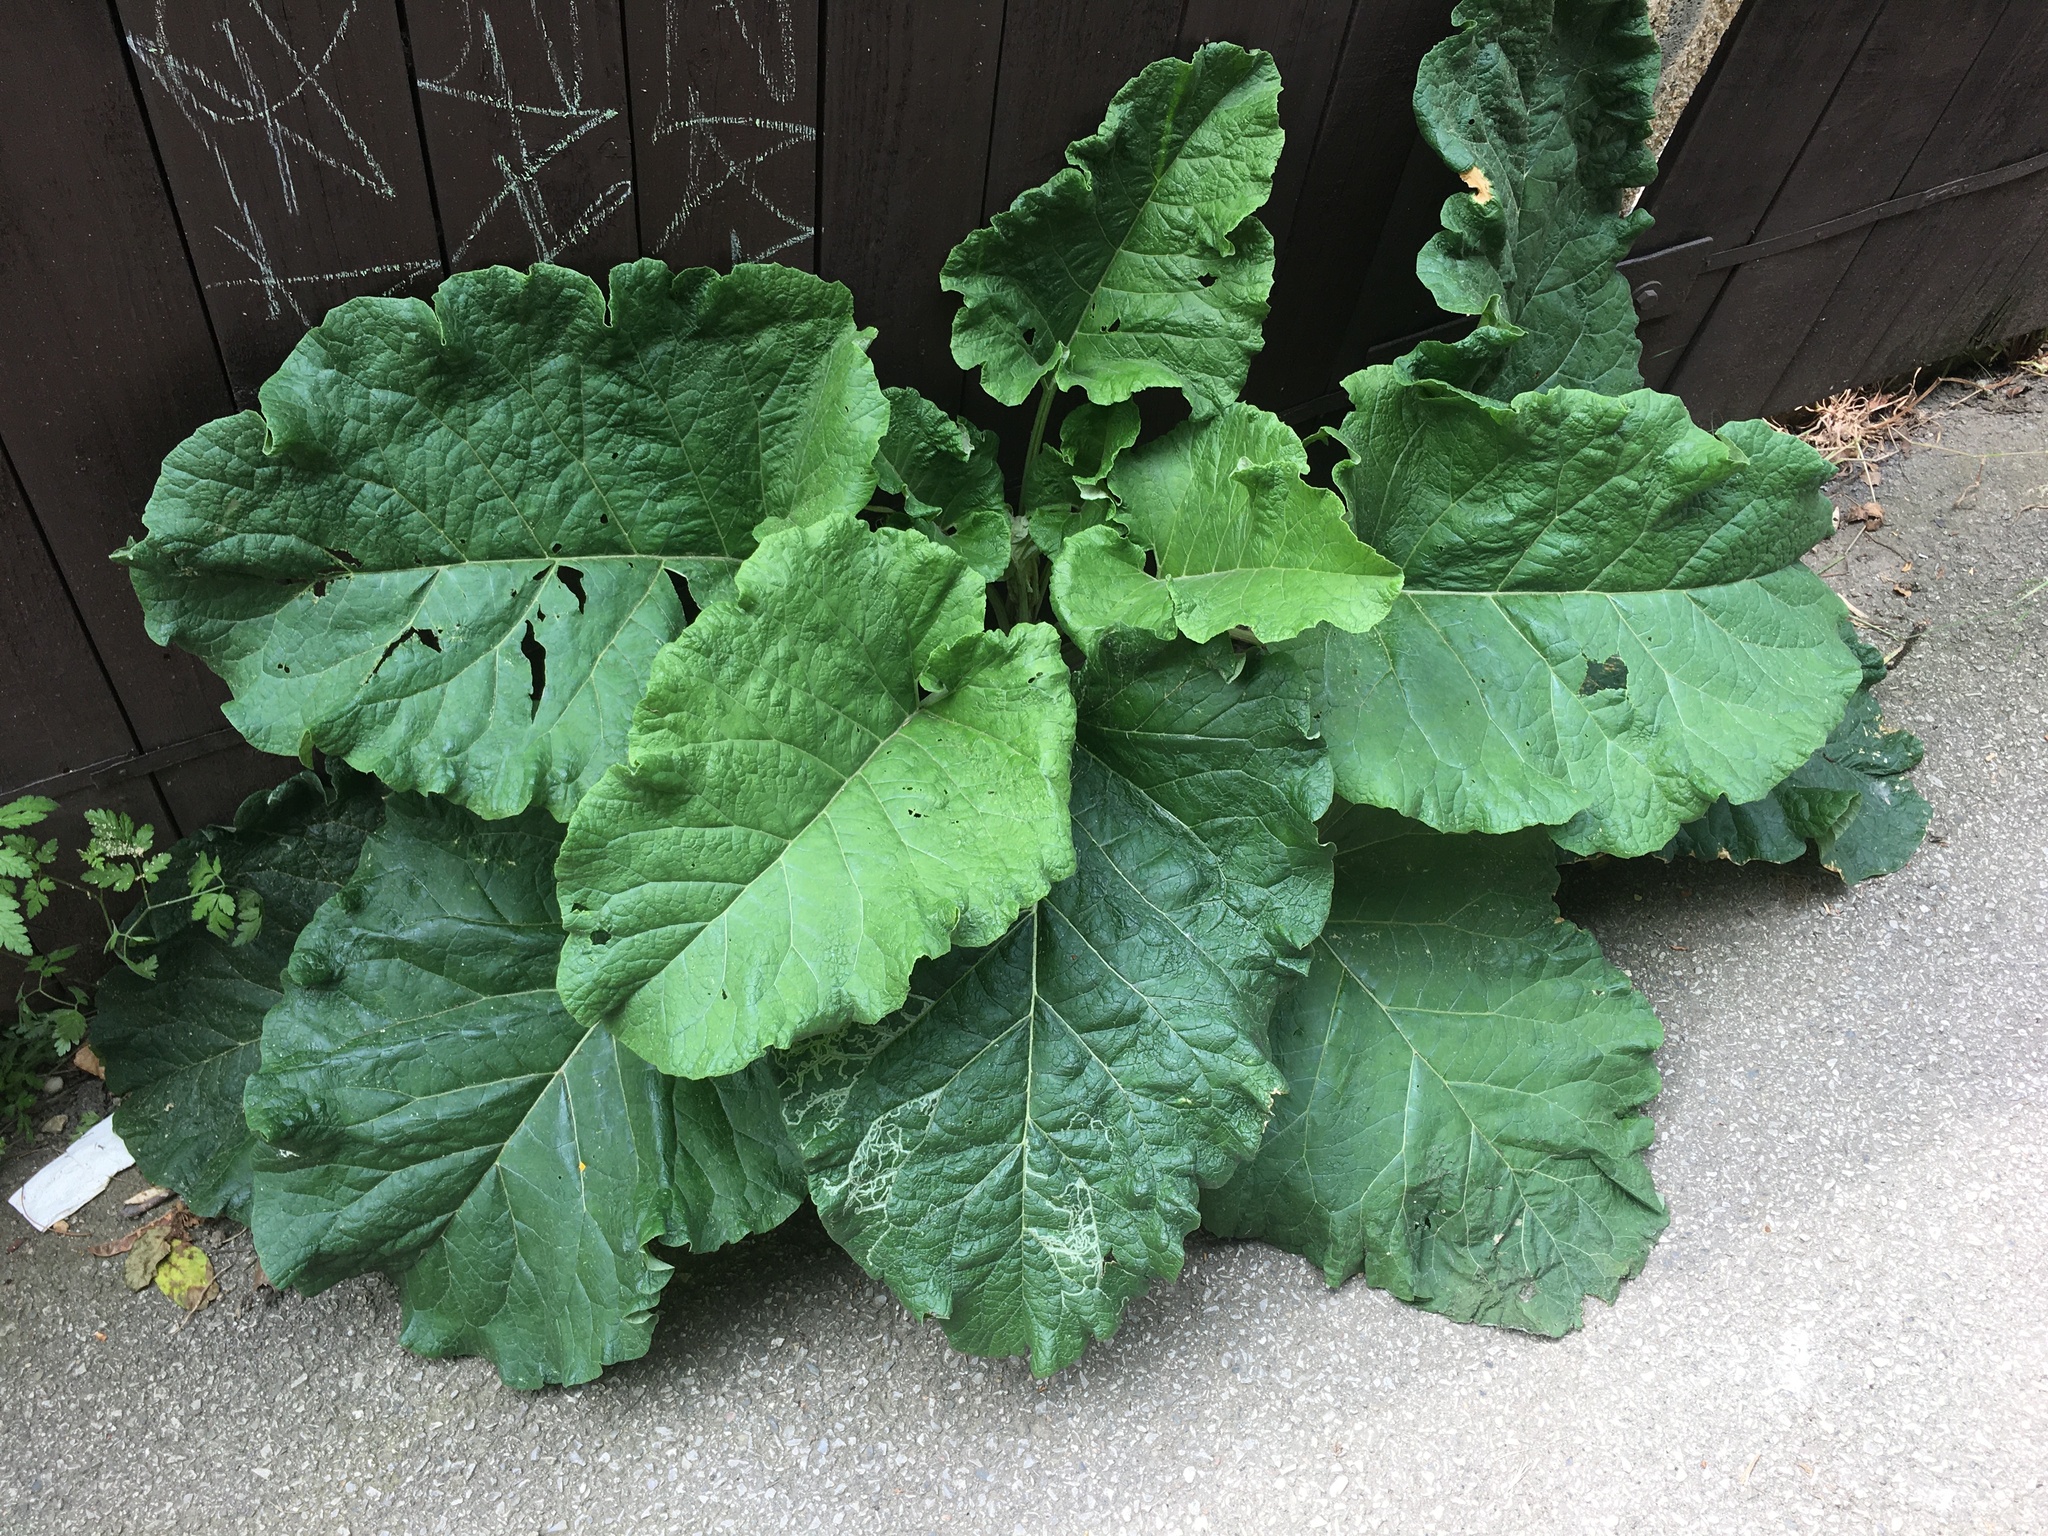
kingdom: Plantae
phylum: Tracheophyta
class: Magnoliopsida
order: Asterales
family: Asteraceae
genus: Arctium
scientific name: Arctium
